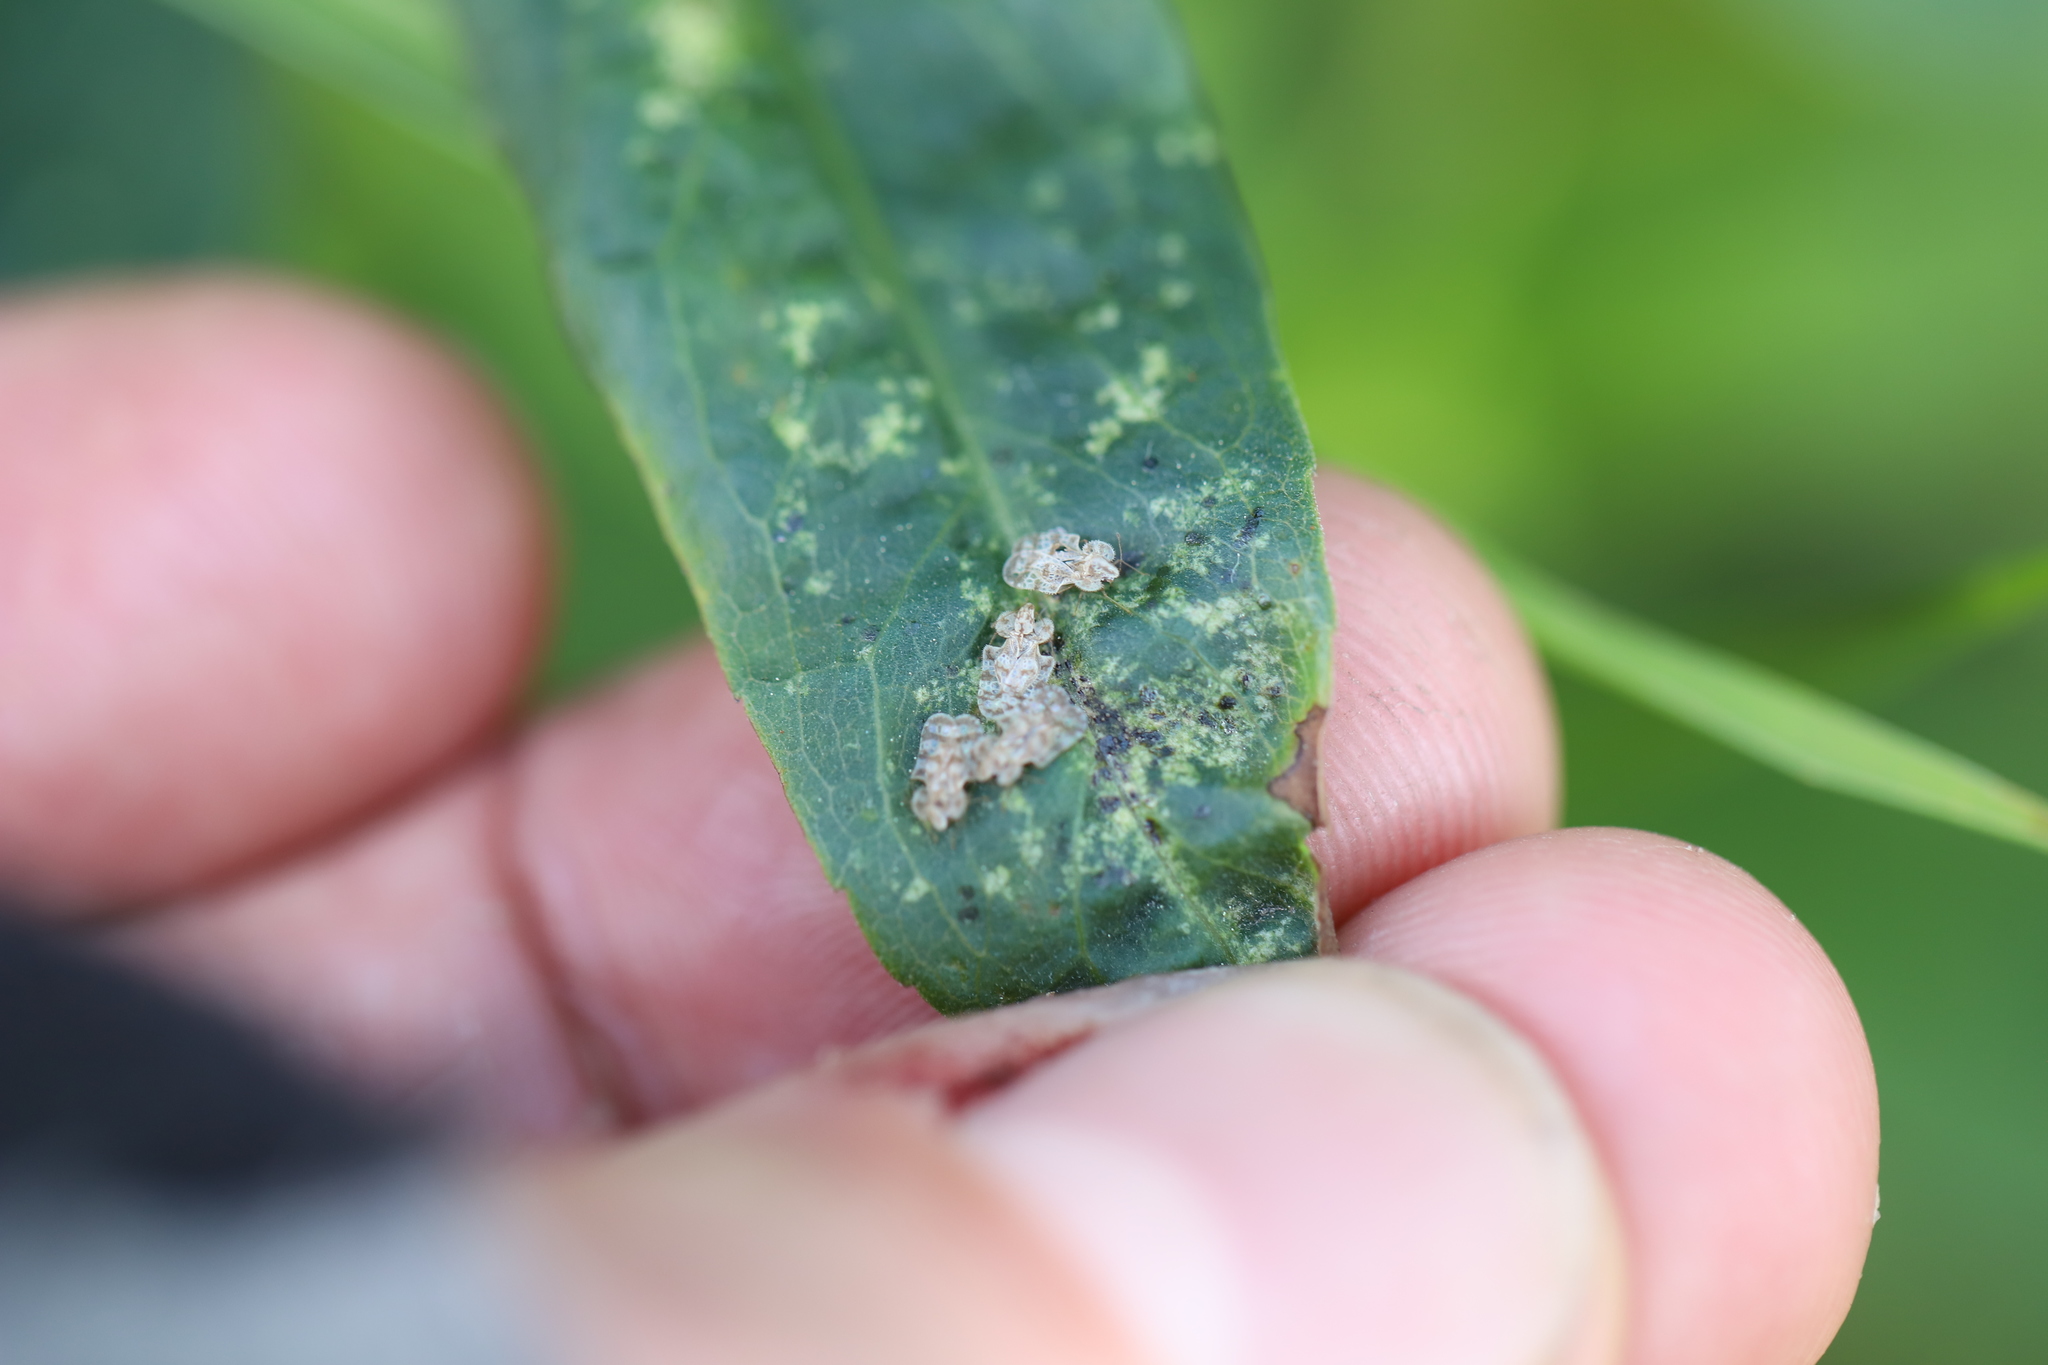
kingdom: Animalia
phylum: Arthropoda
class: Insecta
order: Hemiptera
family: Tingidae
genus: Corythucha
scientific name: Corythucha marmorata
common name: Chrysanthemum lace bug
